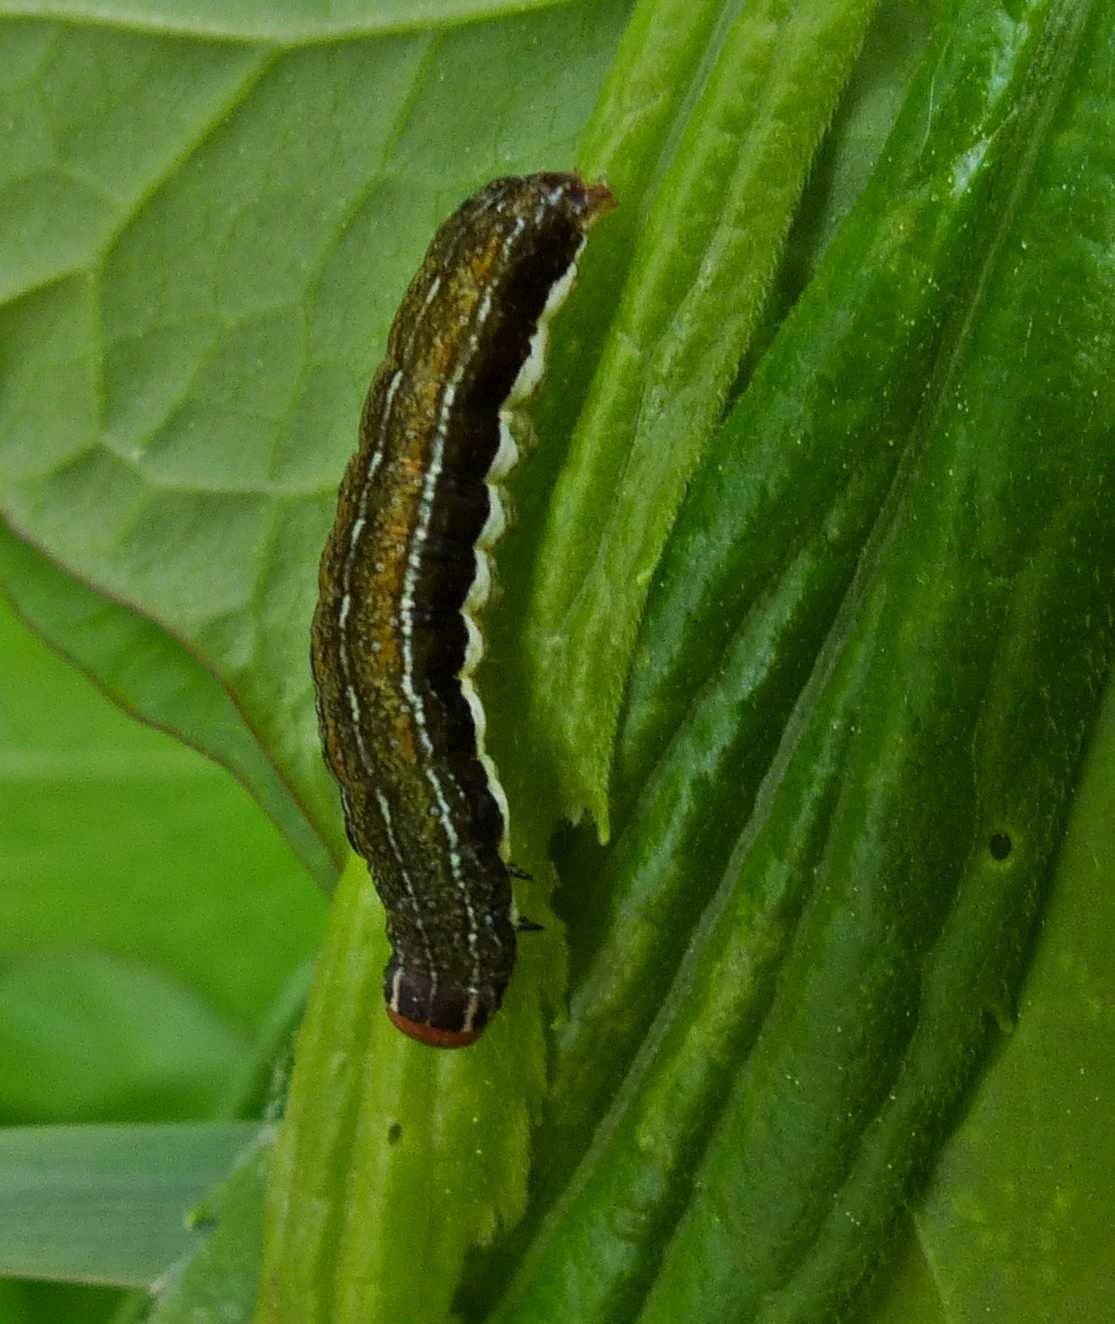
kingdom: Animalia
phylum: Arthropoda
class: Insecta
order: Lepidoptera
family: Noctuidae
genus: Eupsilia
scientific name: Eupsilia devia
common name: Lost sallow
